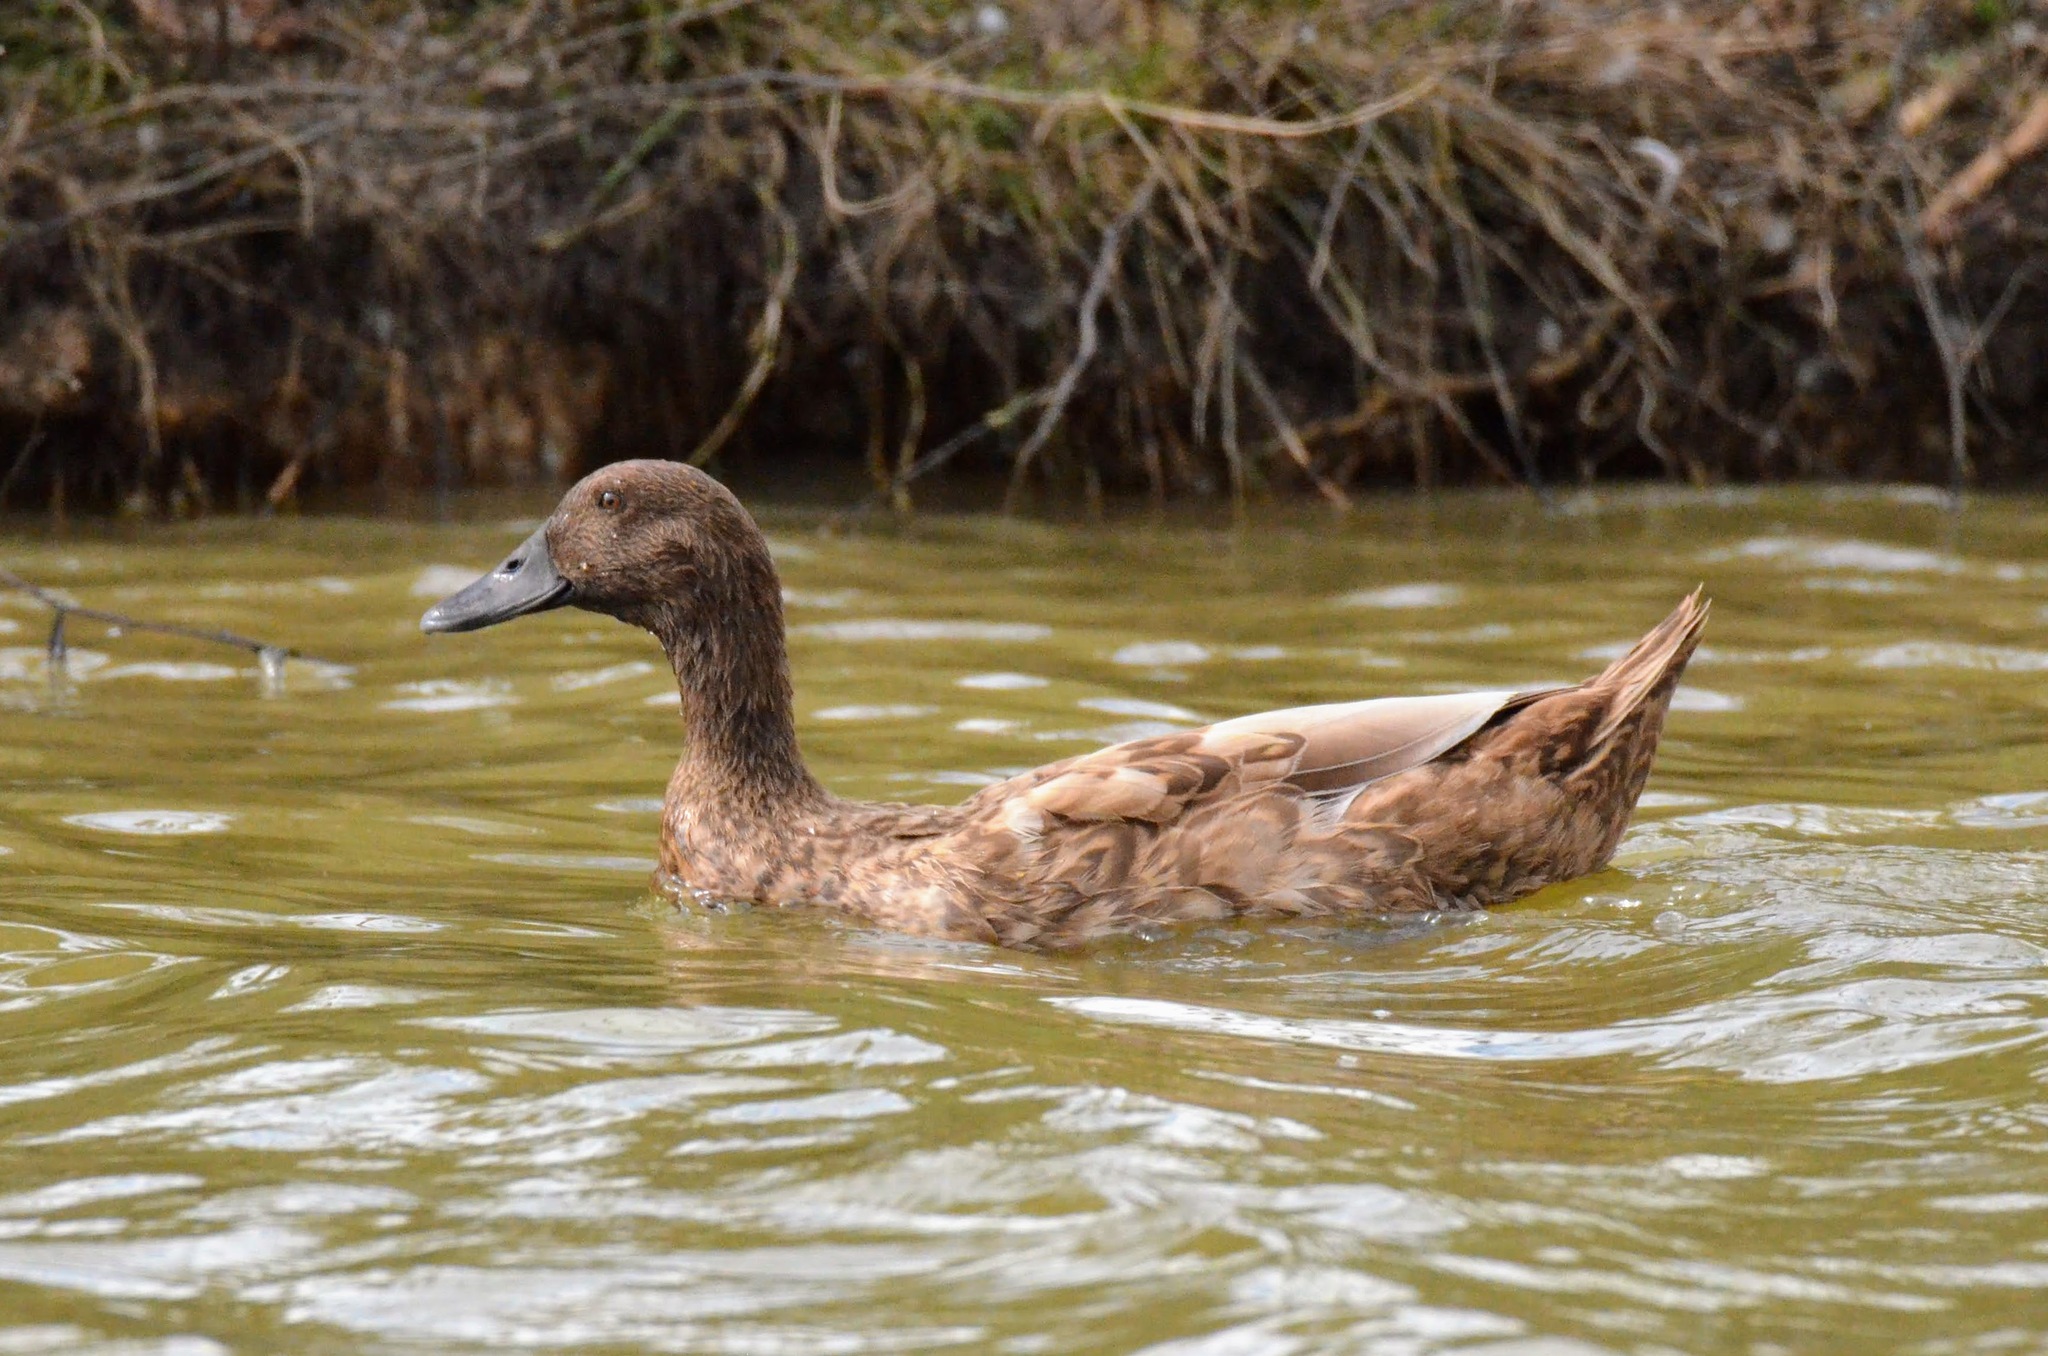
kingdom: Animalia
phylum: Chordata
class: Aves
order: Anseriformes
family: Anatidae
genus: Anas
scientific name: Anas platyrhynchos
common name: Mallard
